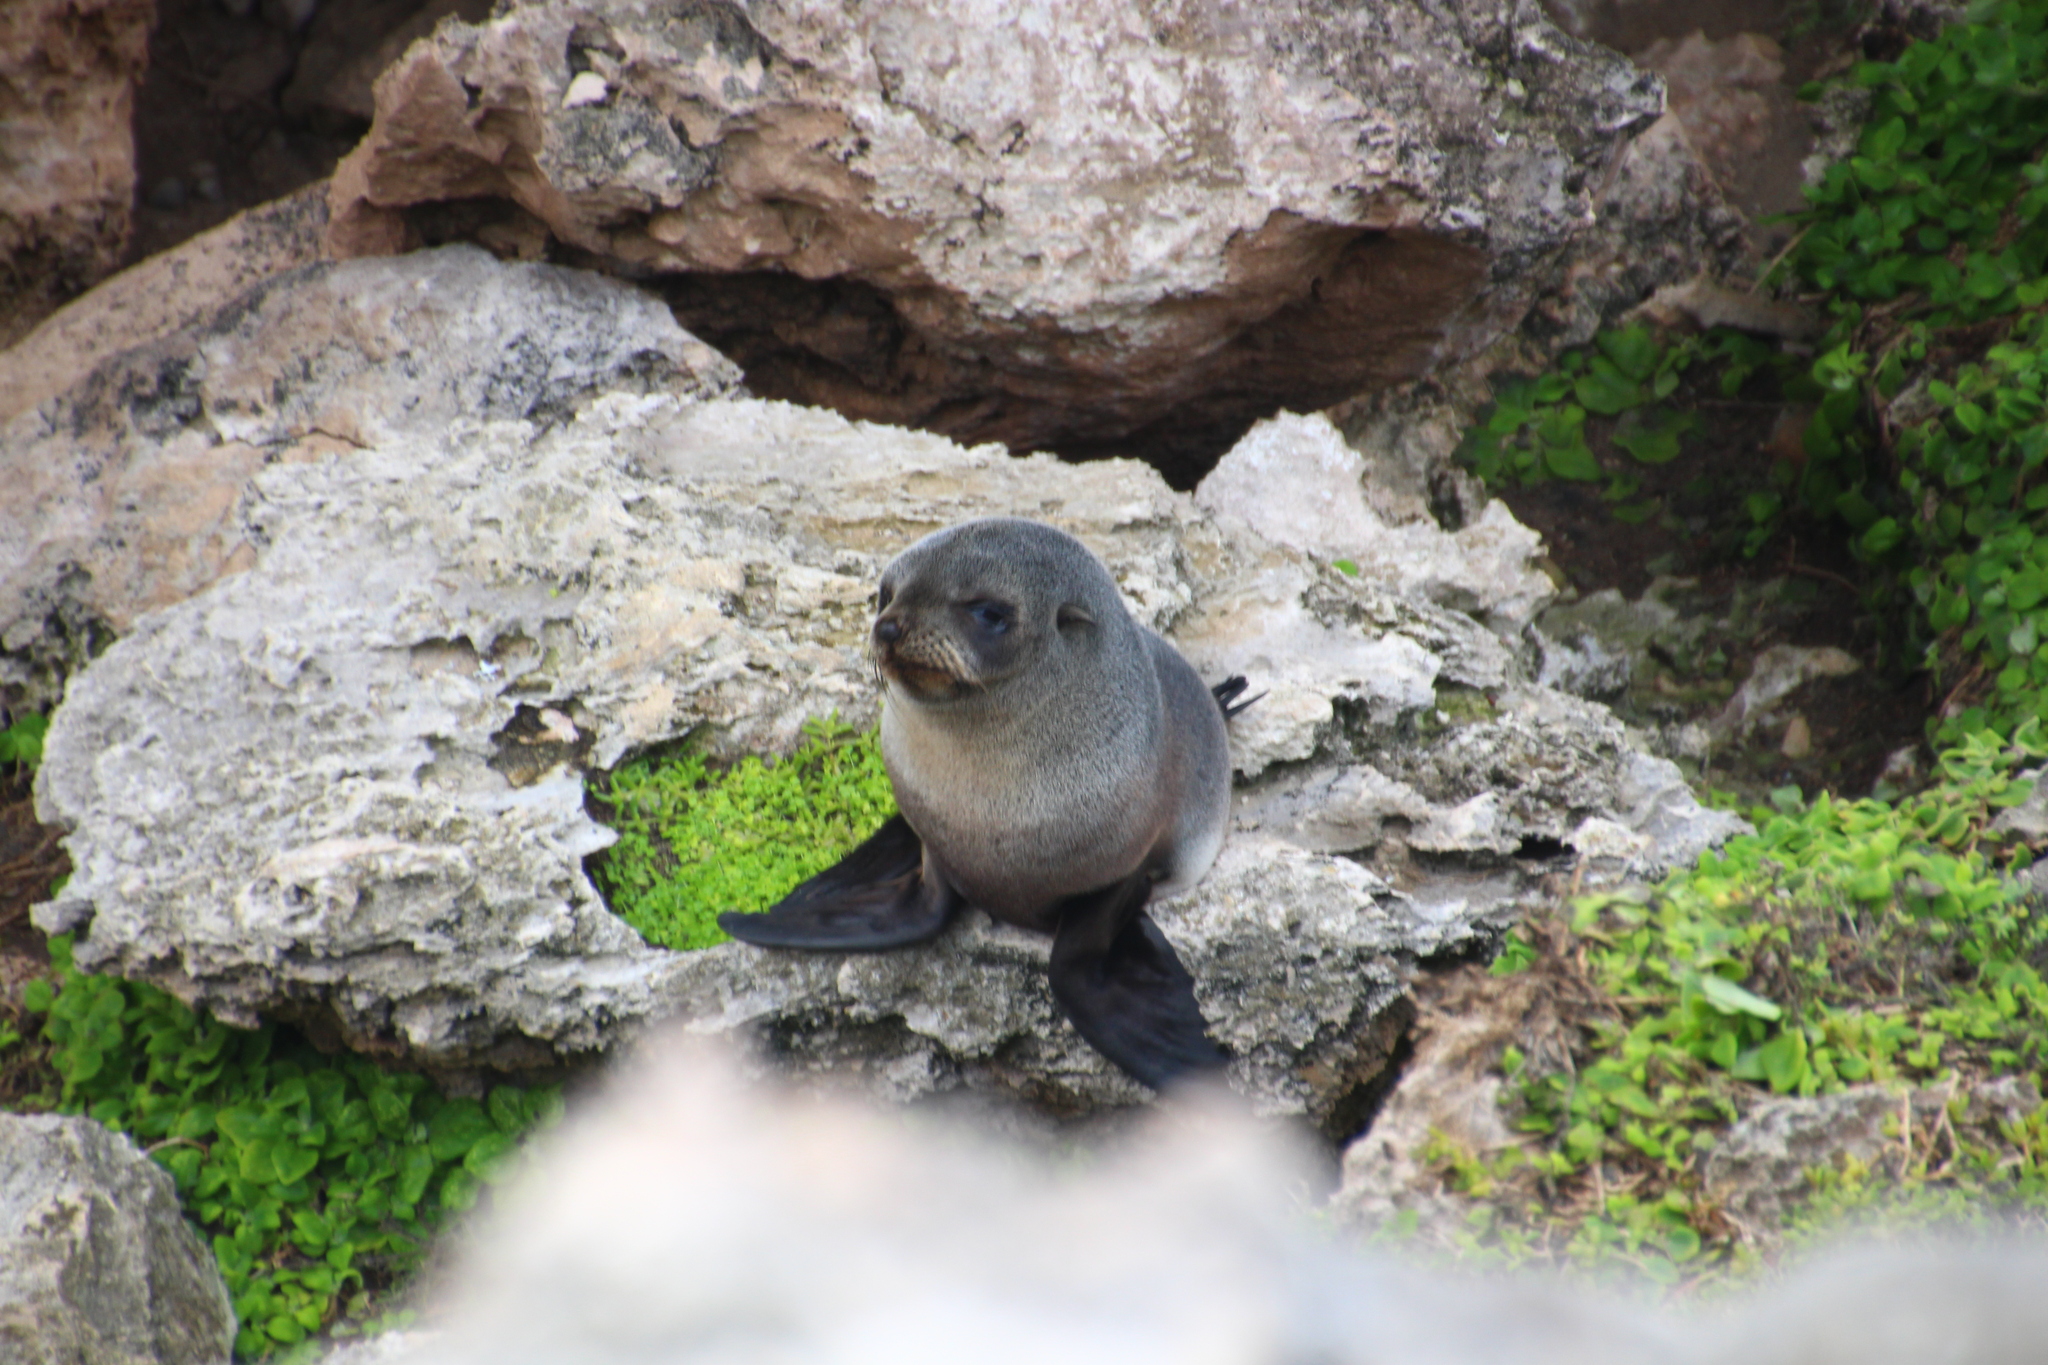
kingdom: Animalia
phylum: Chordata
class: Mammalia
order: Carnivora
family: Otariidae
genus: Arctocephalus
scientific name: Arctocephalus forsteri
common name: New zealand fur seal
